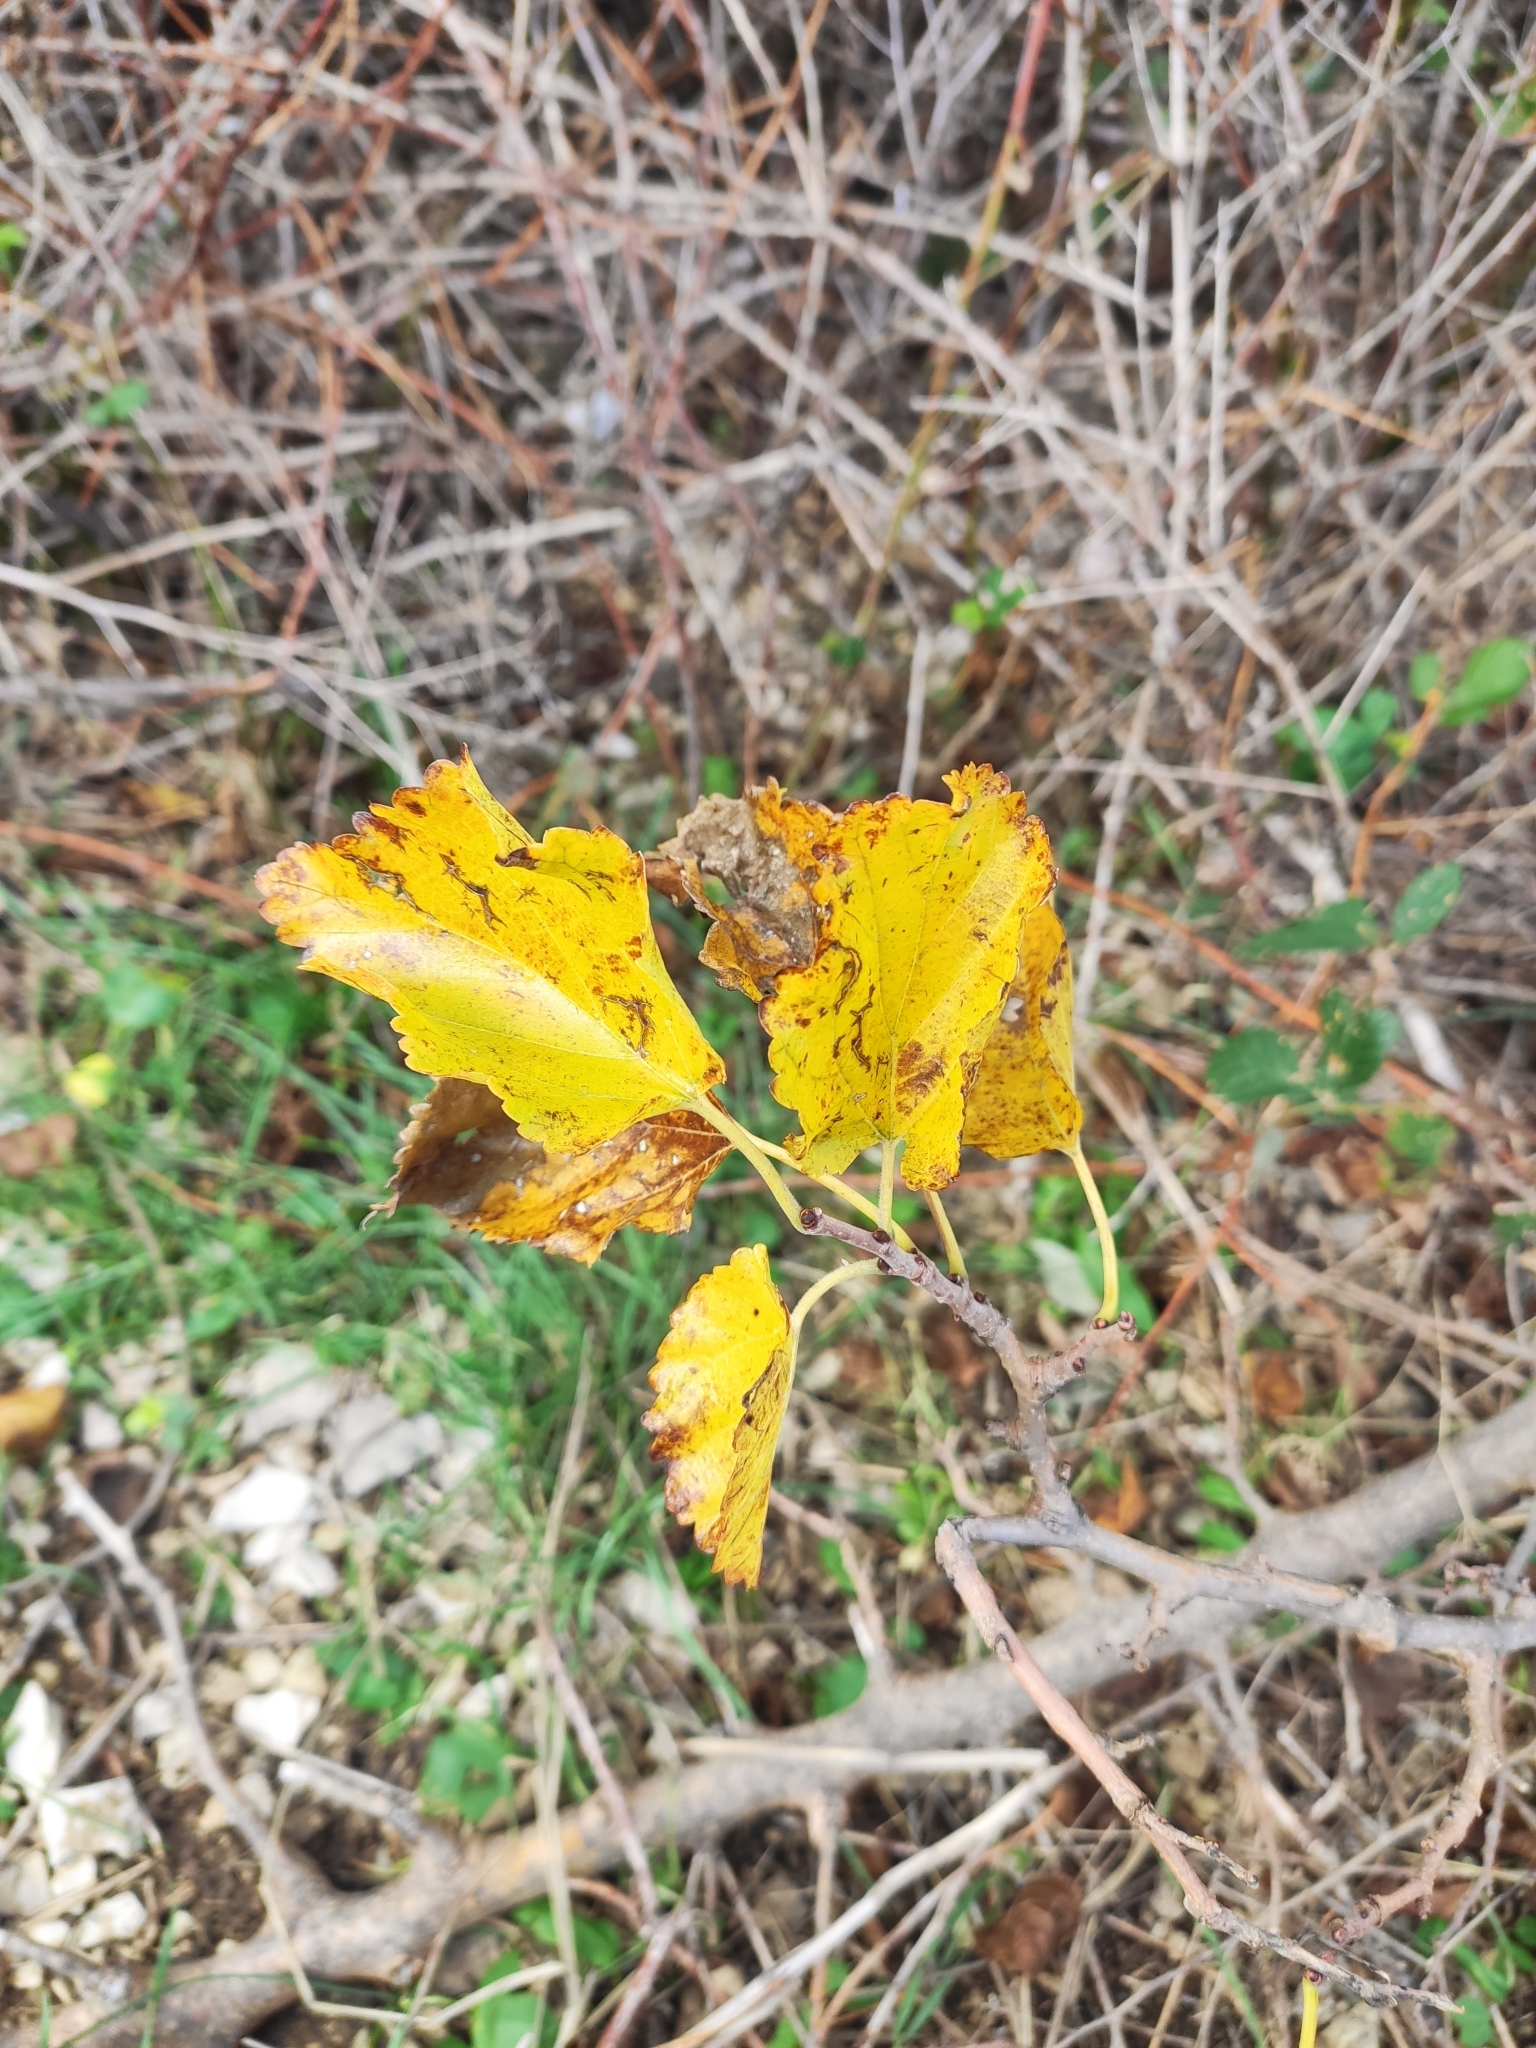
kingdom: Plantae
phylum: Tracheophyta
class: Magnoliopsida
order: Sapindales
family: Sapindaceae
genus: Acer
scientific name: Acer tataricum
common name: Tartar maple
